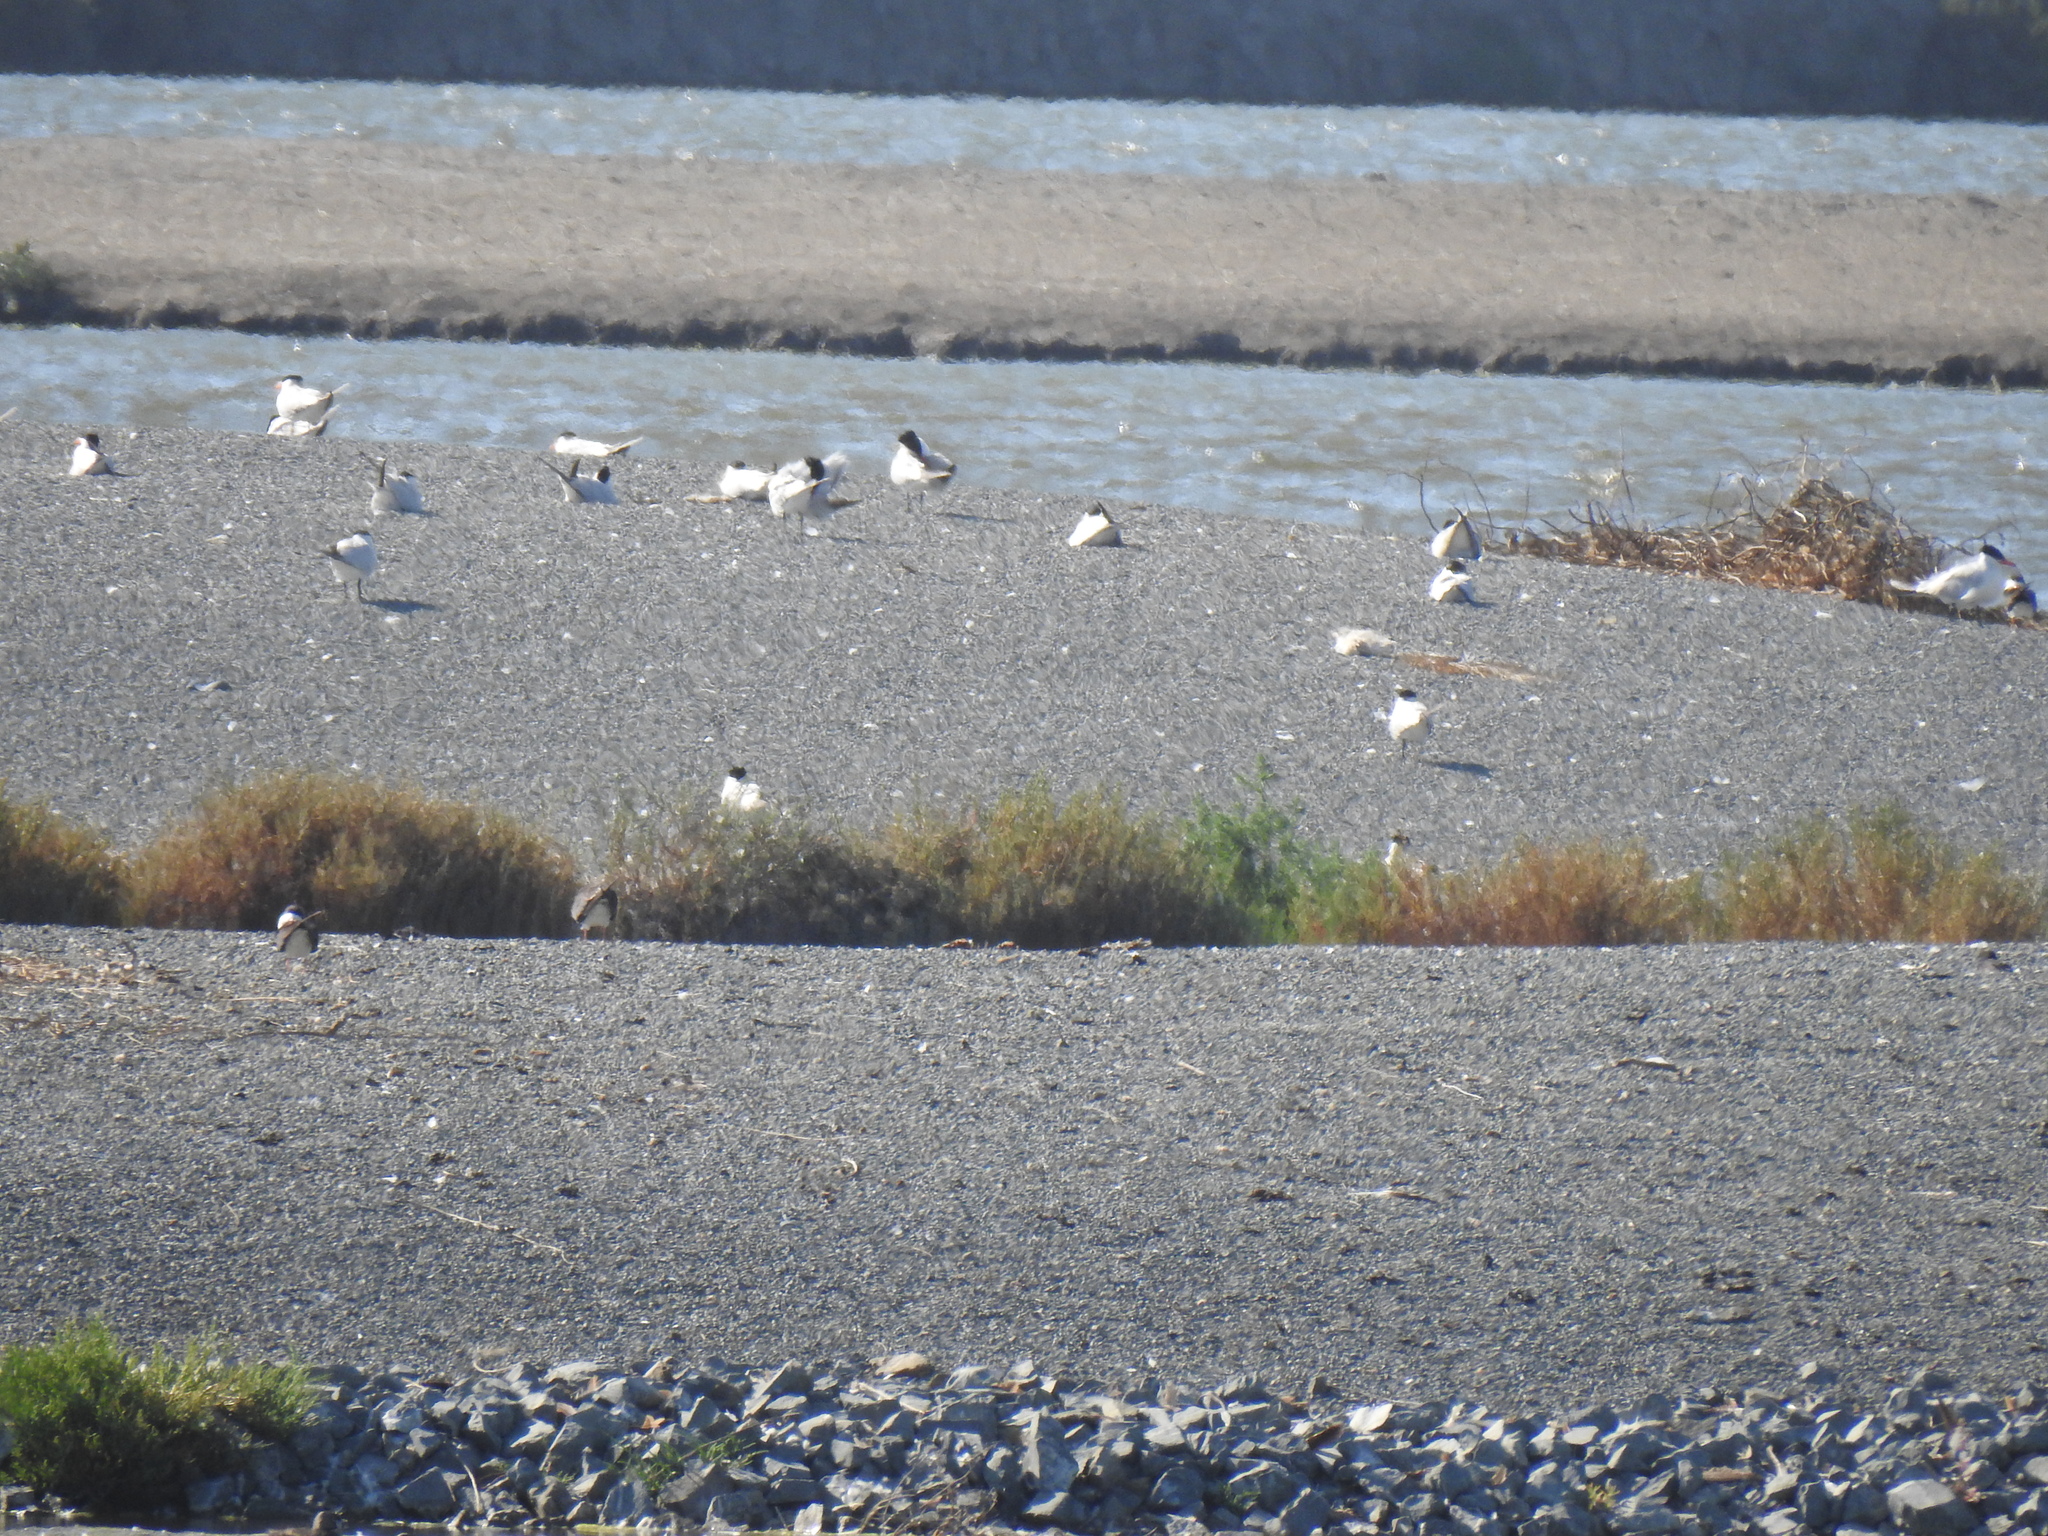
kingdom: Animalia
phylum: Chordata
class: Aves
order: Charadriiformes
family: Laridae
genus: Hydroprogne
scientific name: Hydroprogne caspia
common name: Caspian tern
